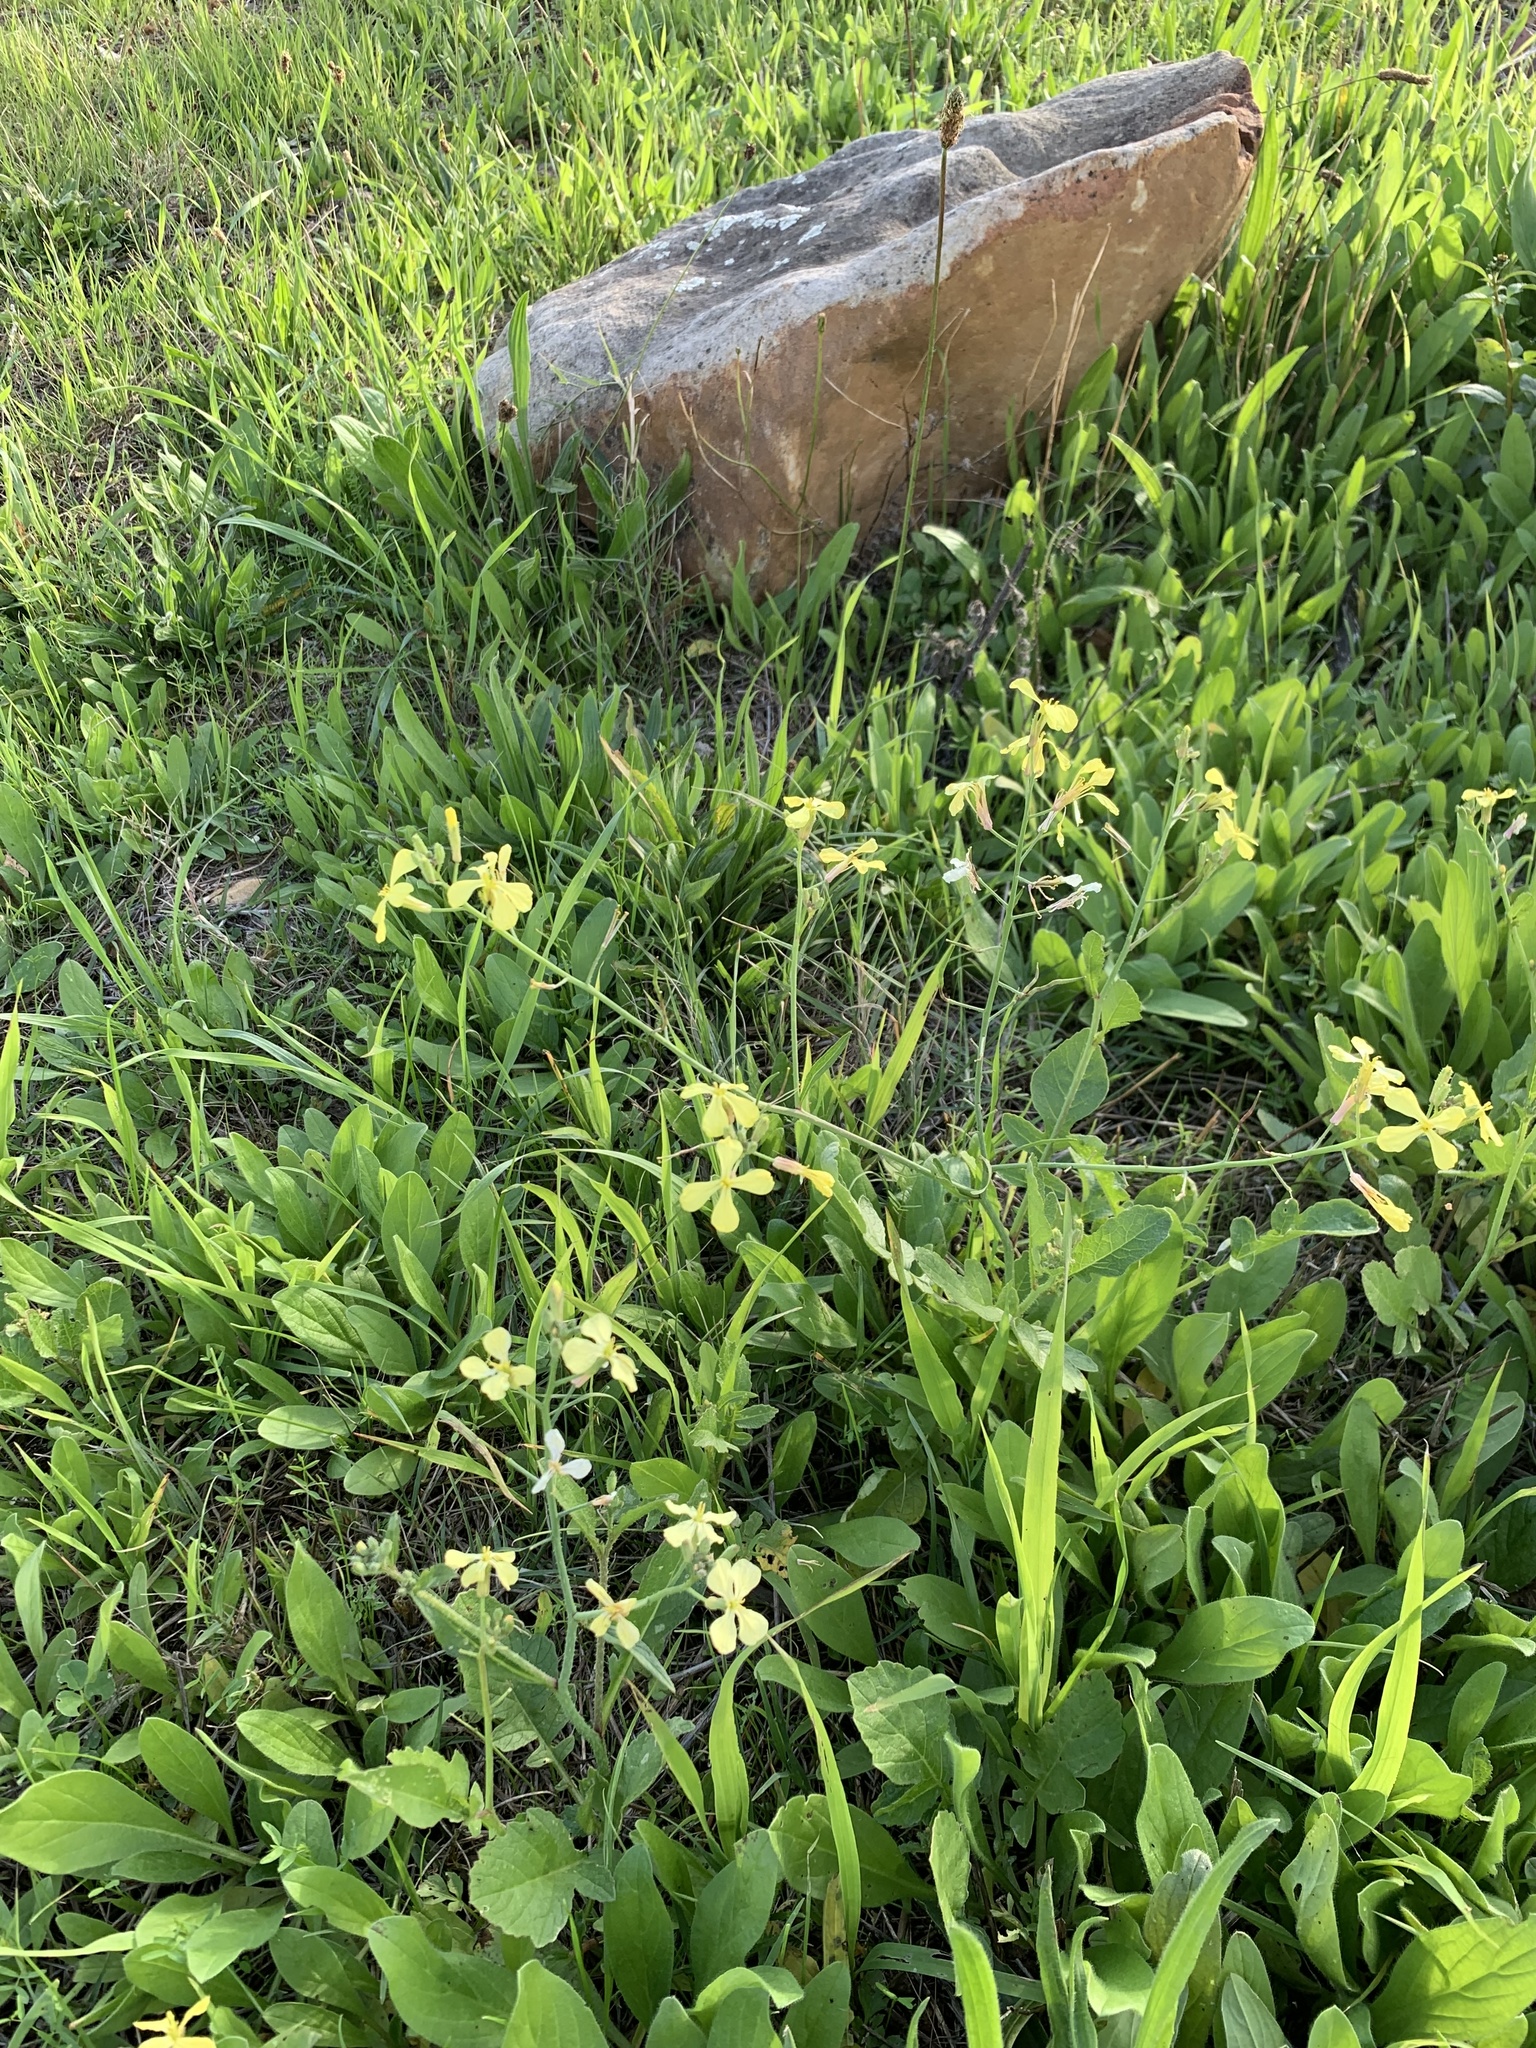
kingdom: Plantae
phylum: Tracheophyta
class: Magnoliopsida
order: Brassicales
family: Brassicaceae
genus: Raphanus
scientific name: Raphanus raphanistrum
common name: Wild radish
